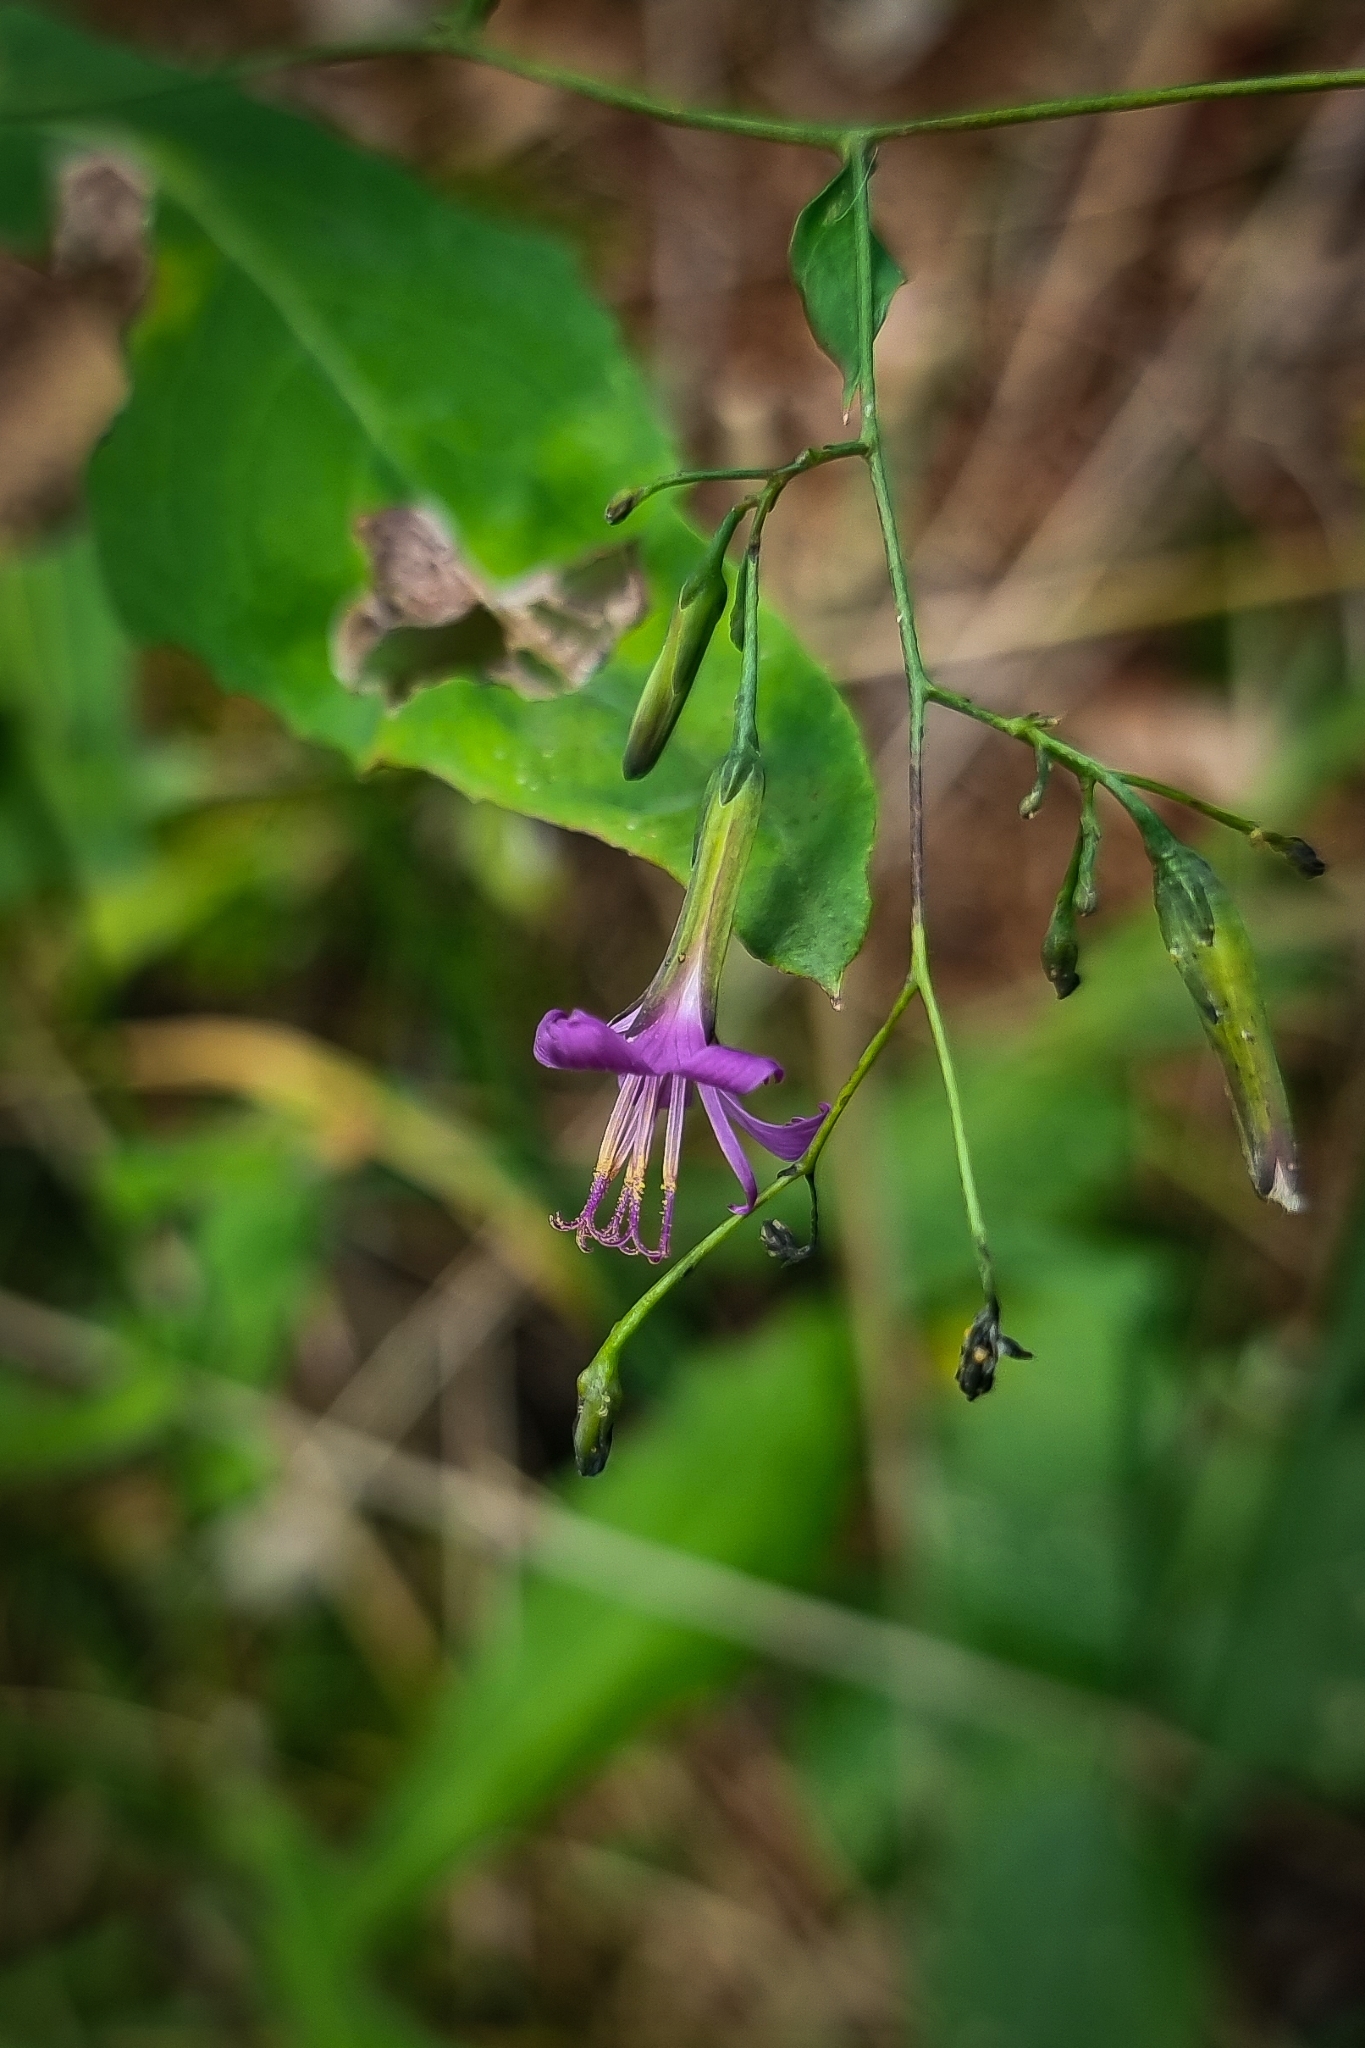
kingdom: Plantae
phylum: Tracheophyta
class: Magnoliopsida
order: Asterales
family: Asteraceae
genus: Prenanthes
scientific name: Prenanthes purpurea
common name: Purple lettuce
